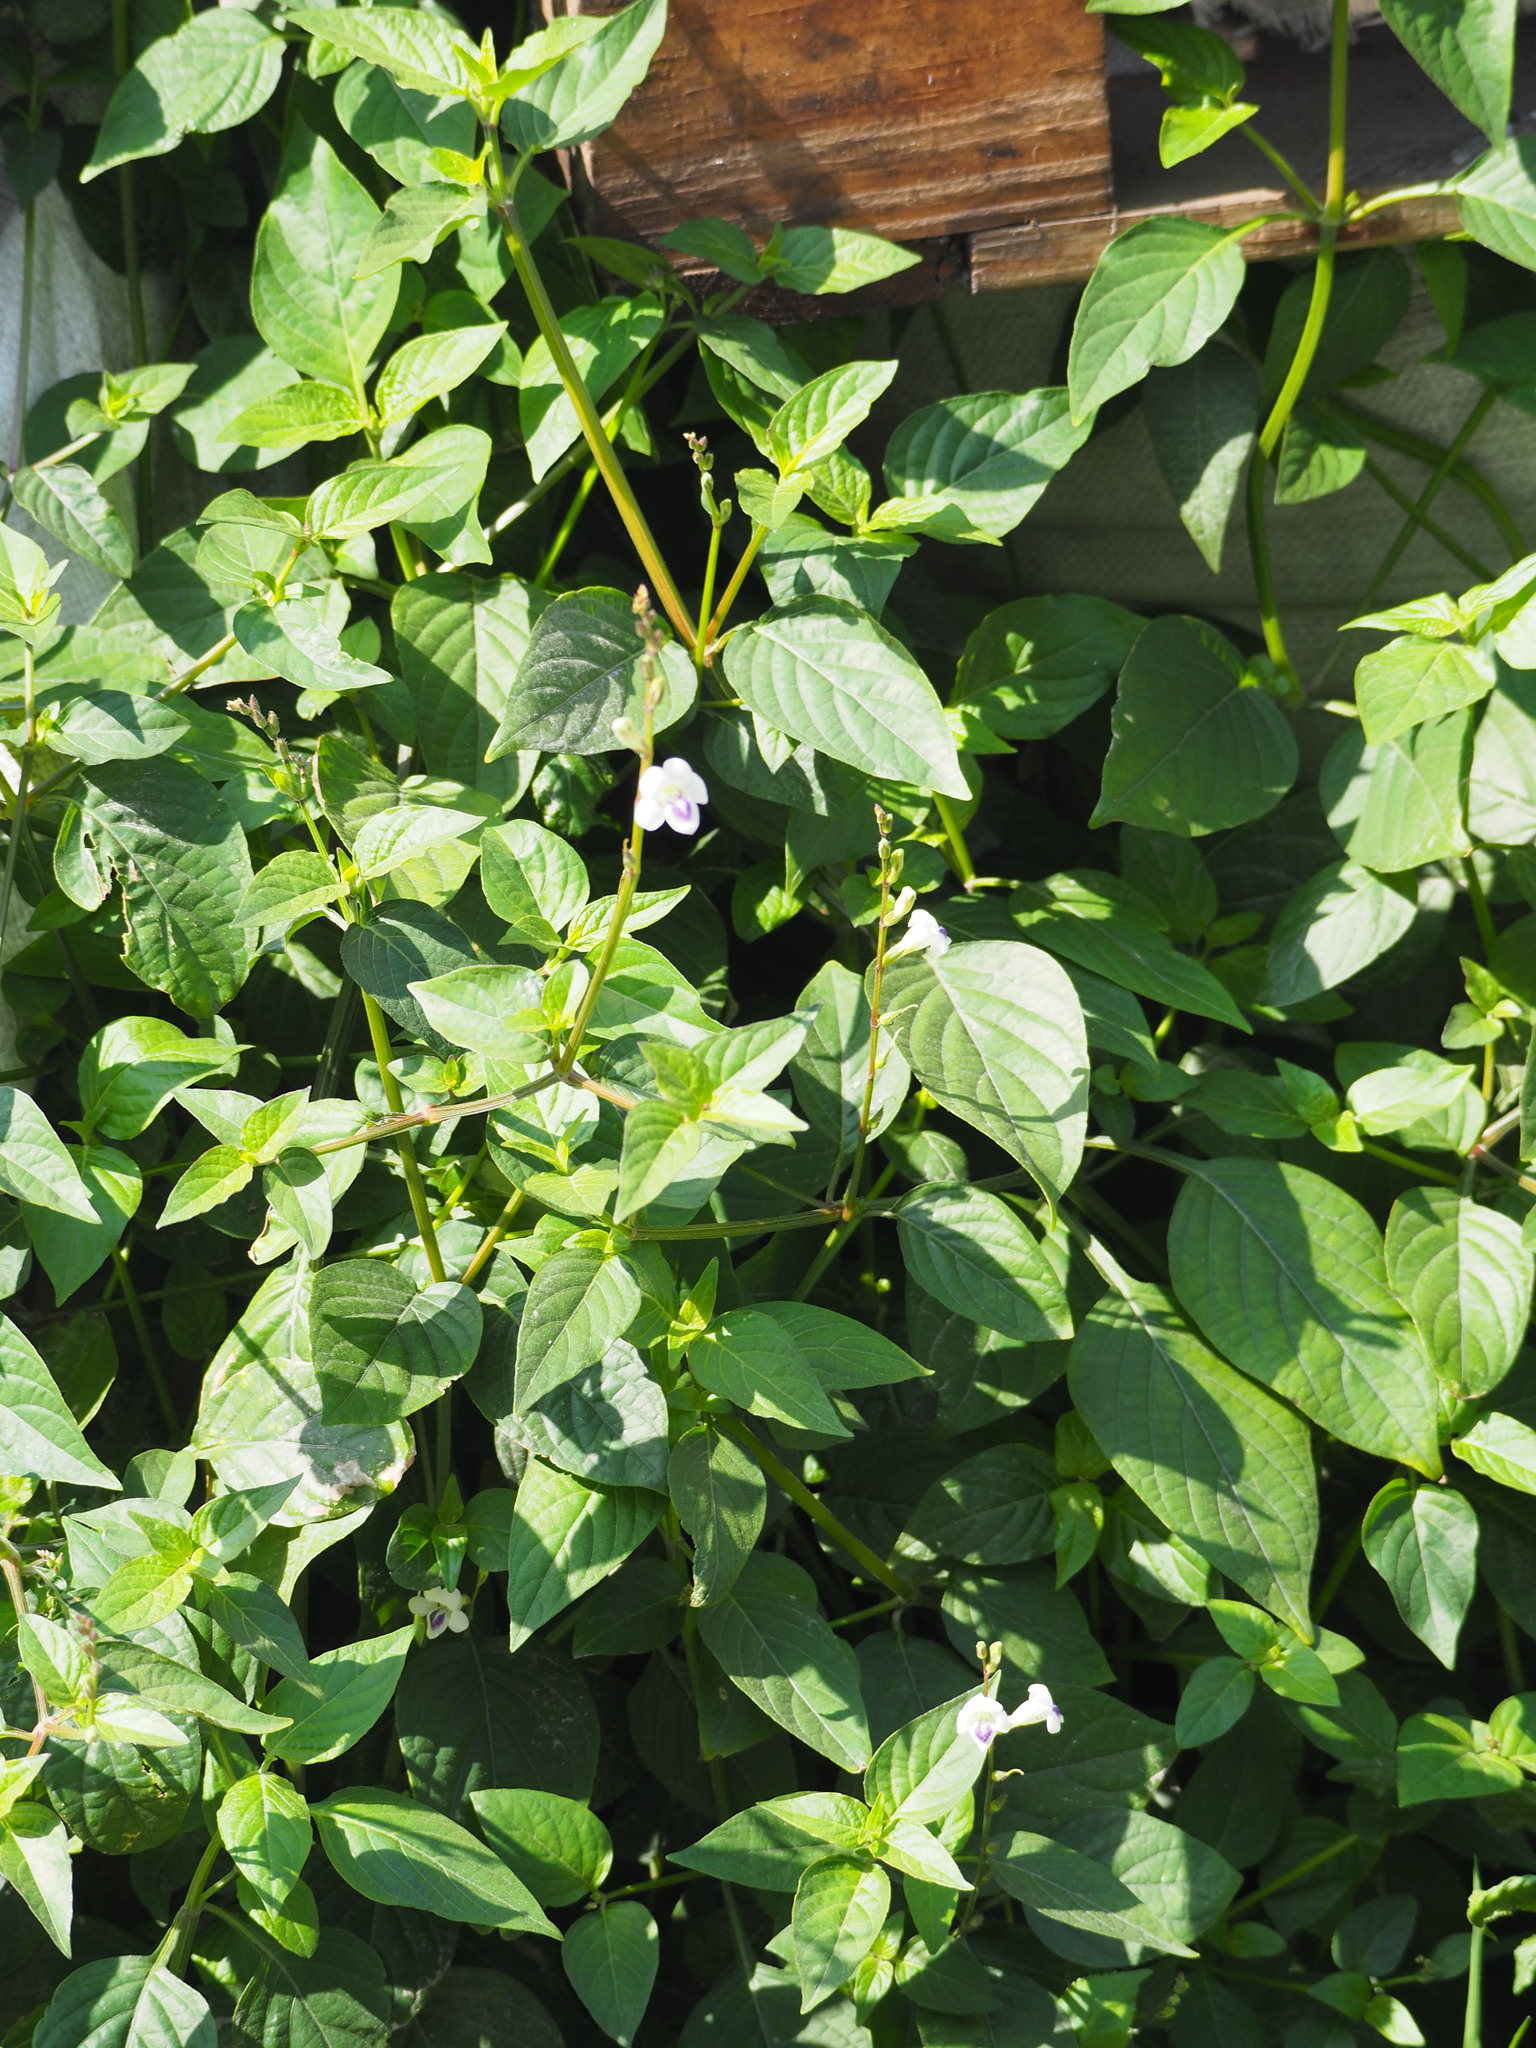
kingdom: Plantae
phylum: Tracheophyta
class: Magnoliopsida
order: Lamiales
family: Acanthaceae
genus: Asystasia
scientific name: Asystasia intrusa
